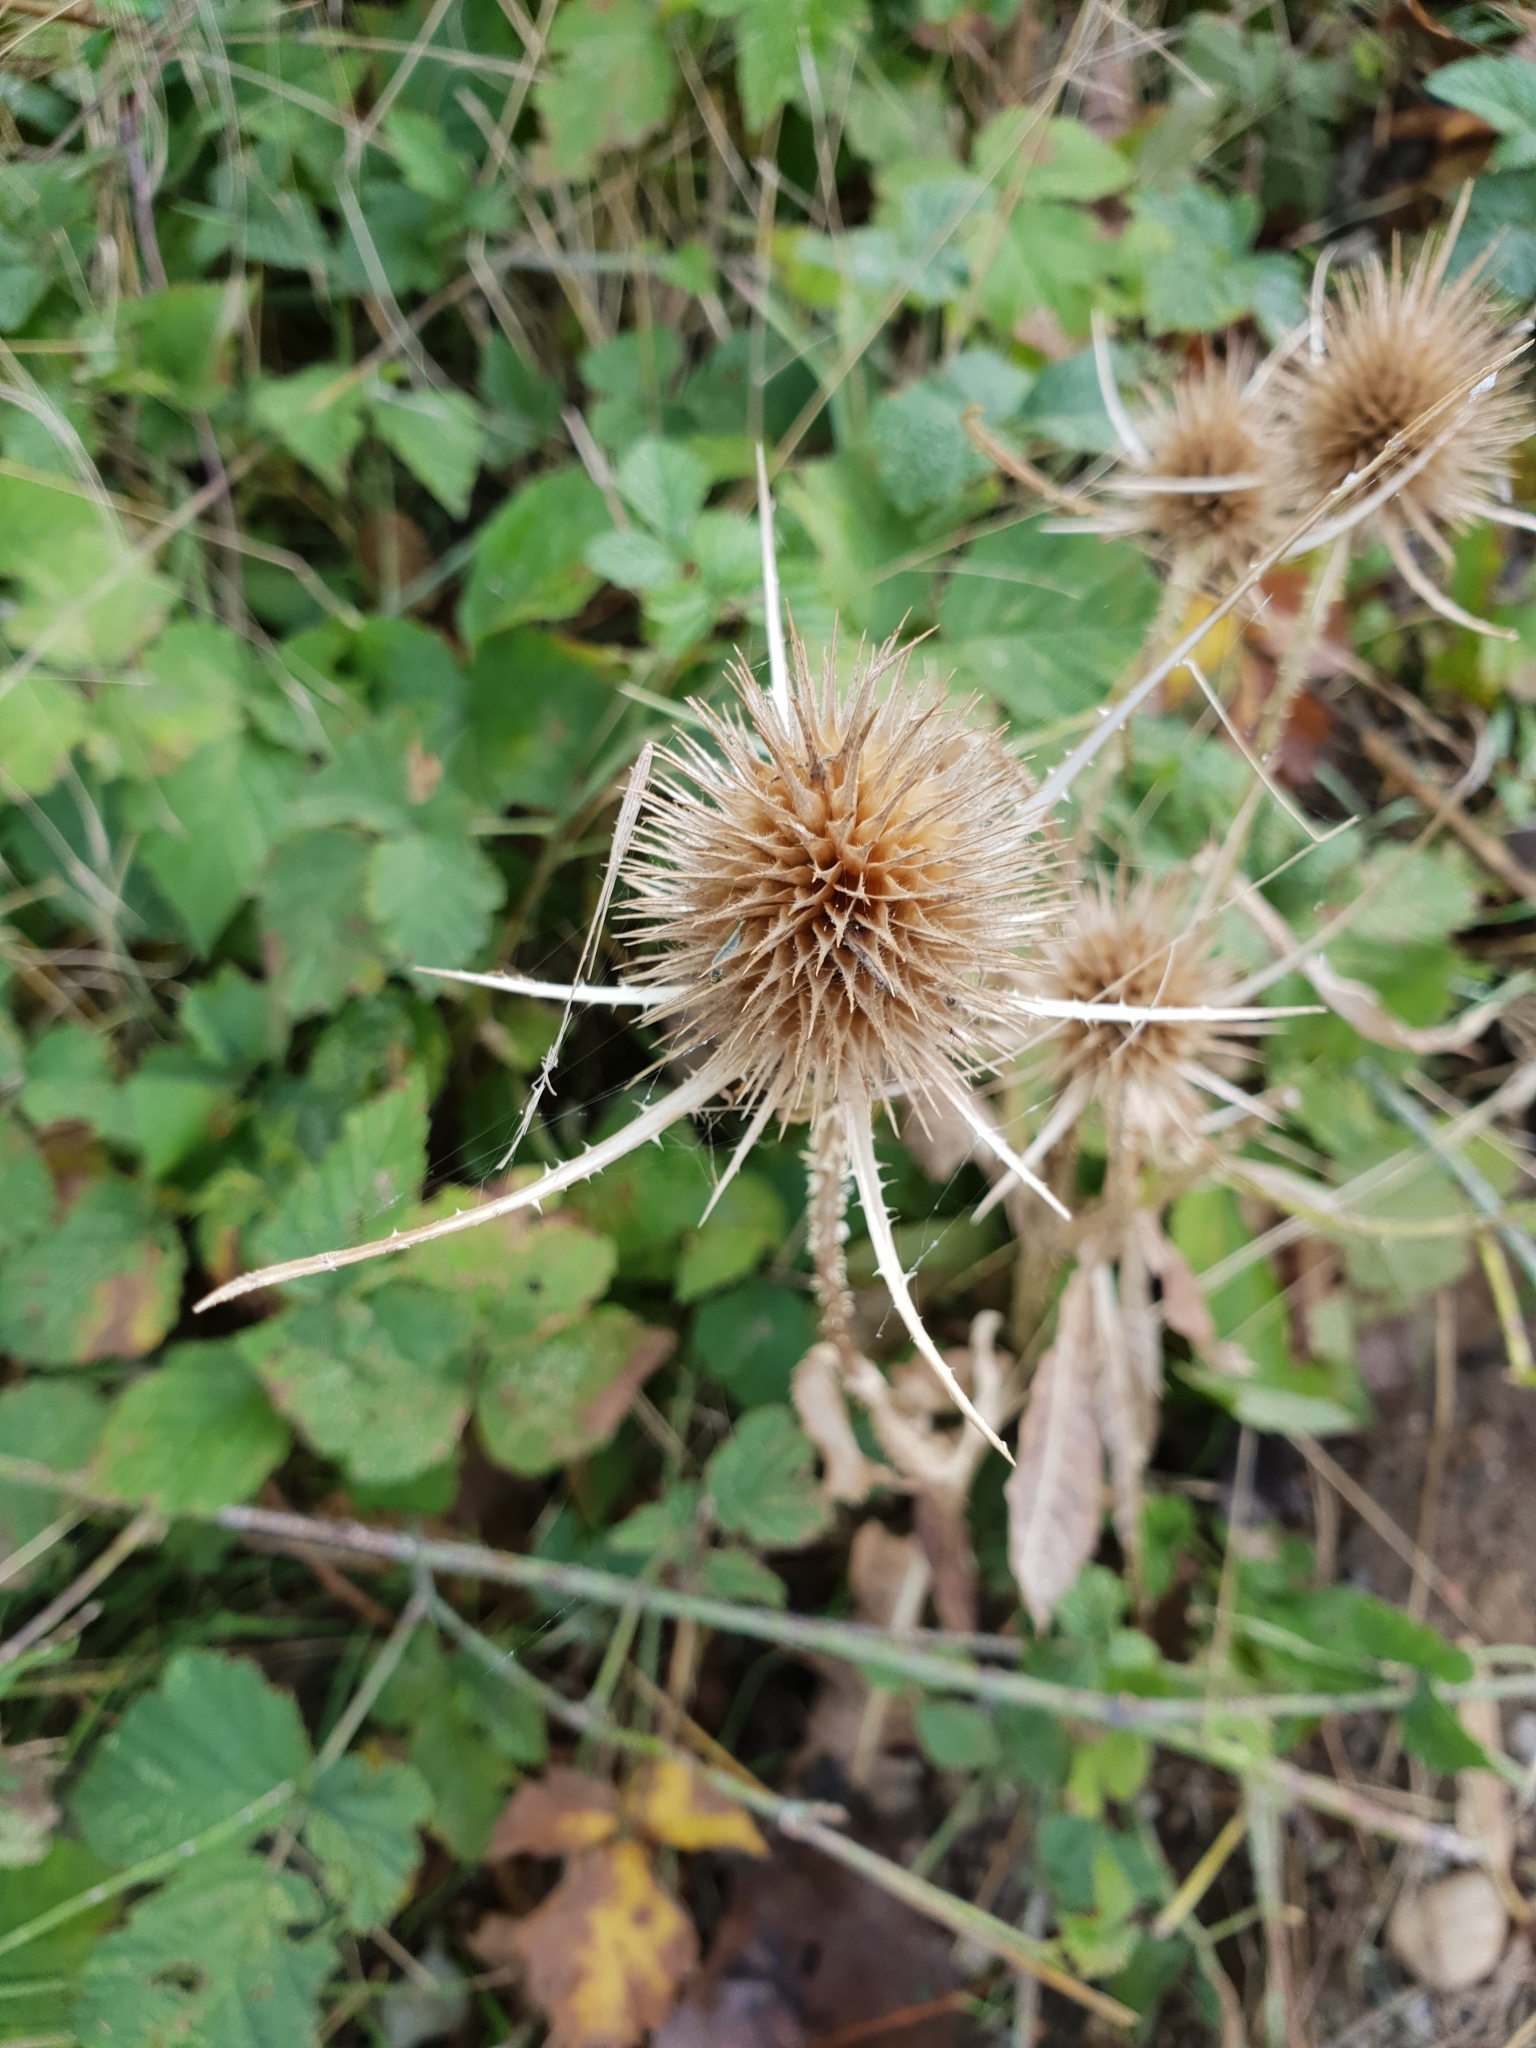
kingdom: Plantae
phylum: Tracheophyta
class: Magnoliopsida
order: Dipsacales
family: Caprifoliaceae
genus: Dipsacus
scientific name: Dipsacus fullonum
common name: Teasel
